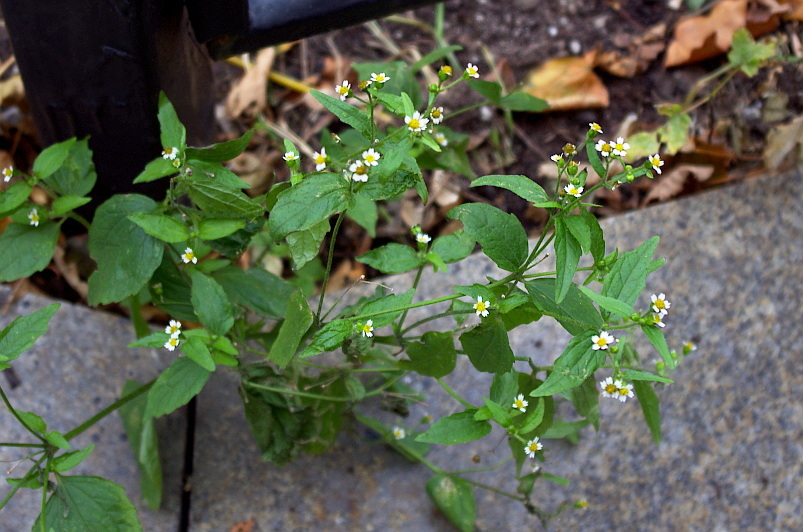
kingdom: Plantae
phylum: Tracheophyta
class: Magnoliopsida
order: Asterales
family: Asteraceae
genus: Galinsoga
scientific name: Galinsoga parviflora
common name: Gallant soldier
